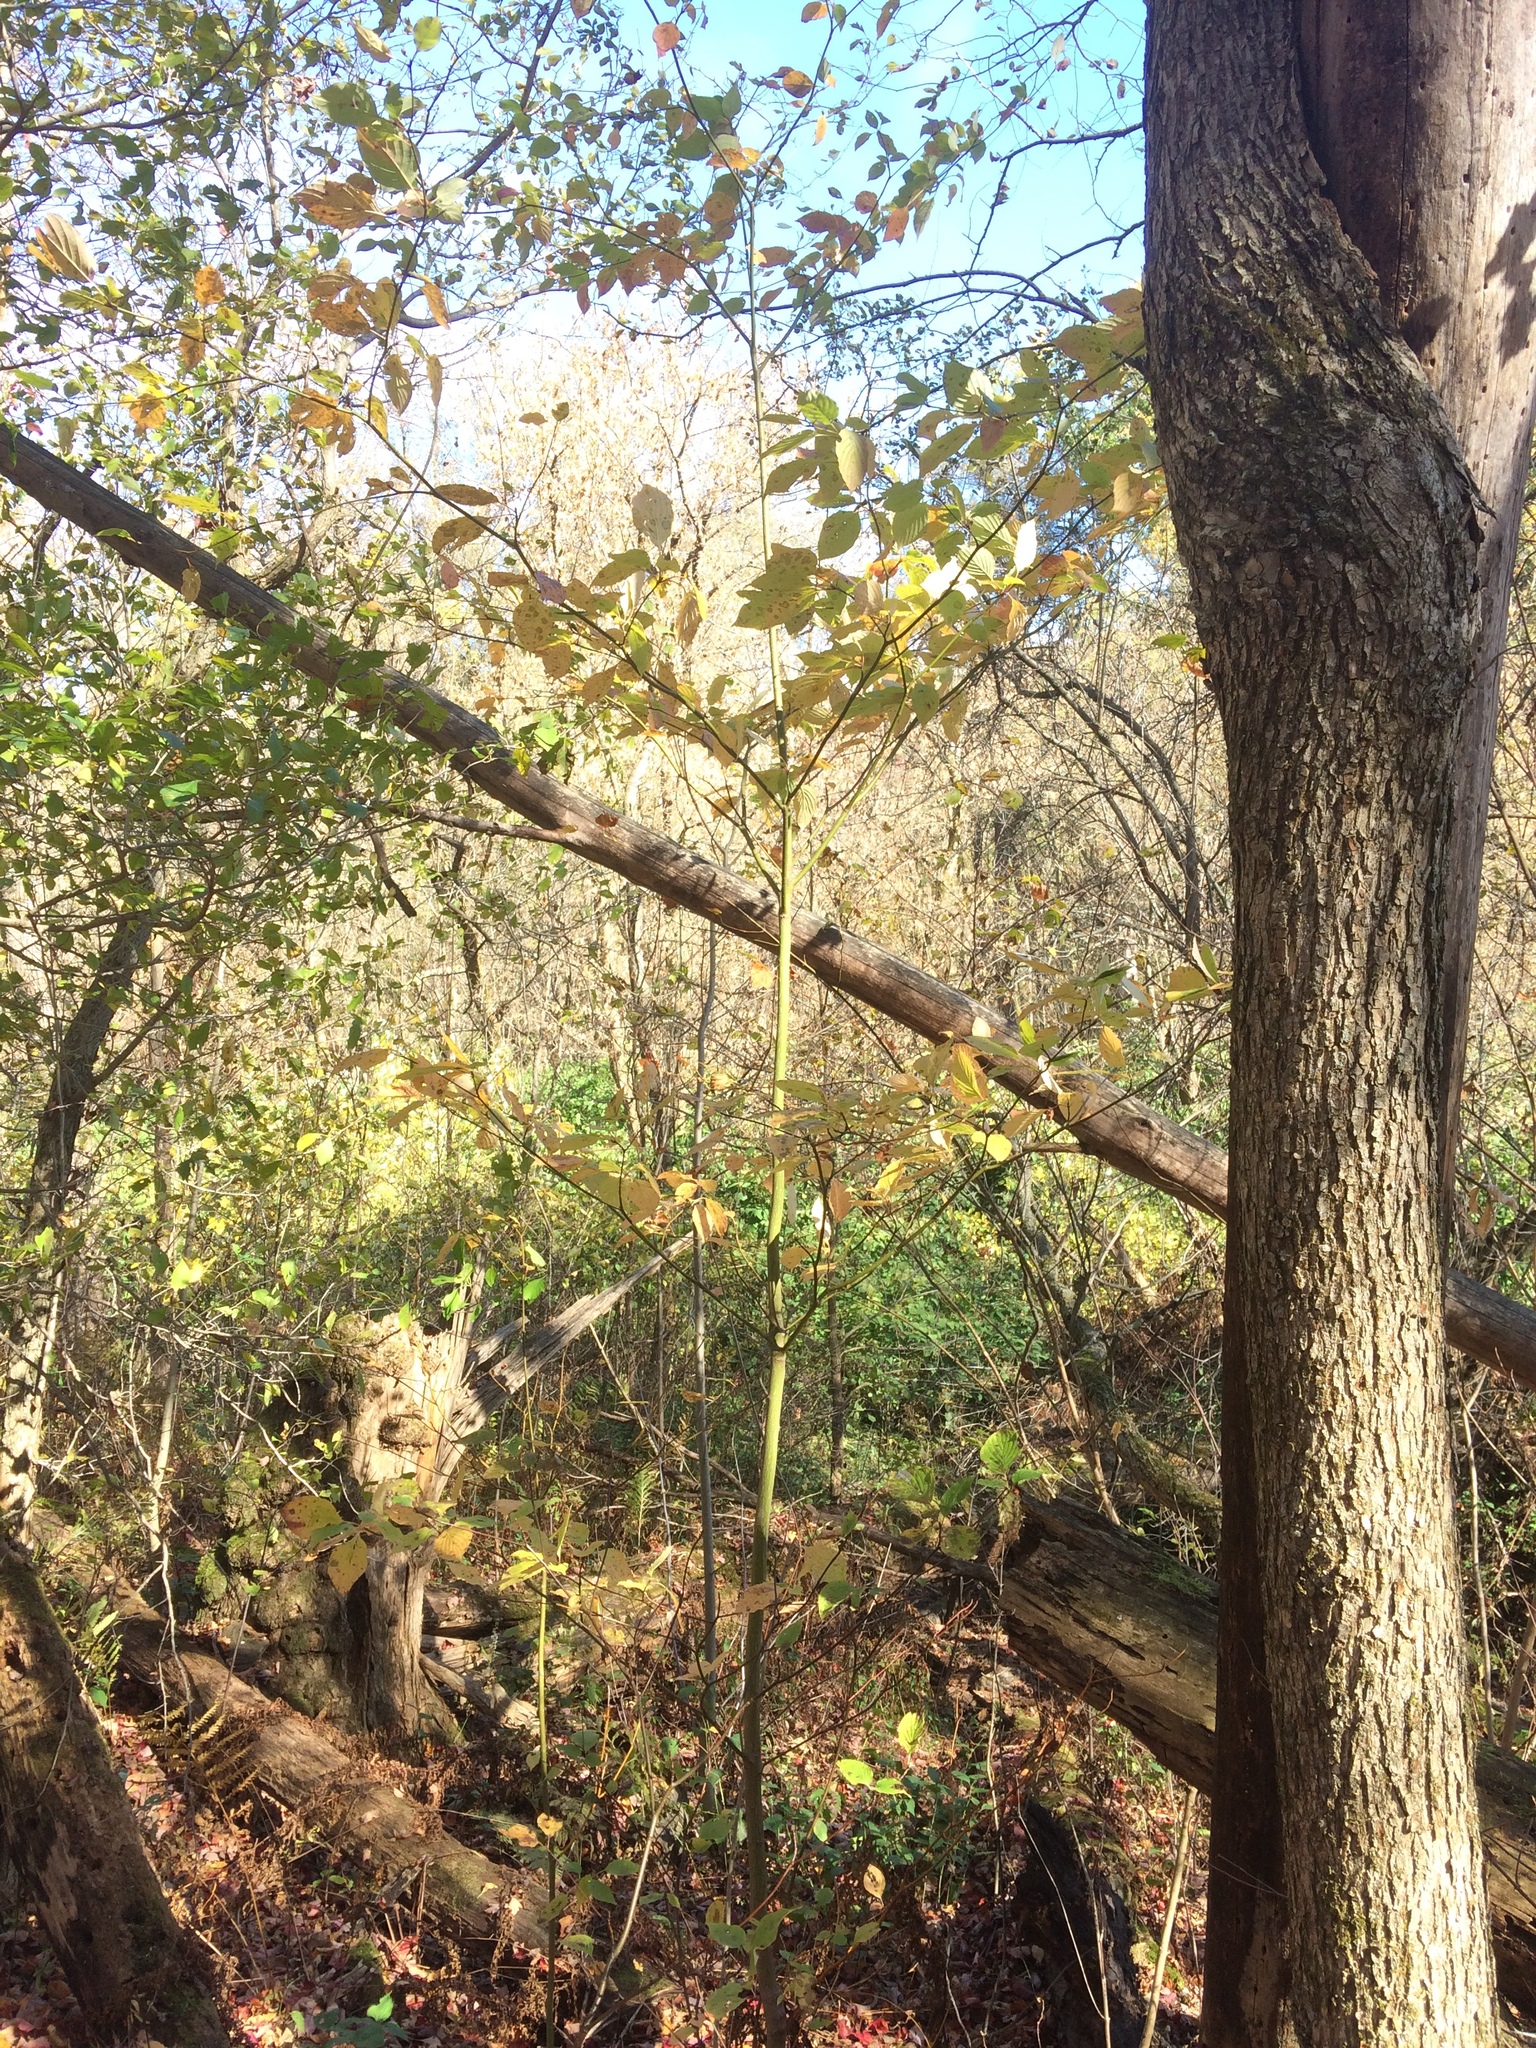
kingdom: Plantae
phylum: Tracheophyta
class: Magnoliopsida
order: Cornales
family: Cornaceae
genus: Cornus
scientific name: Cornus alternifolia
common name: Pagoda dogwood
